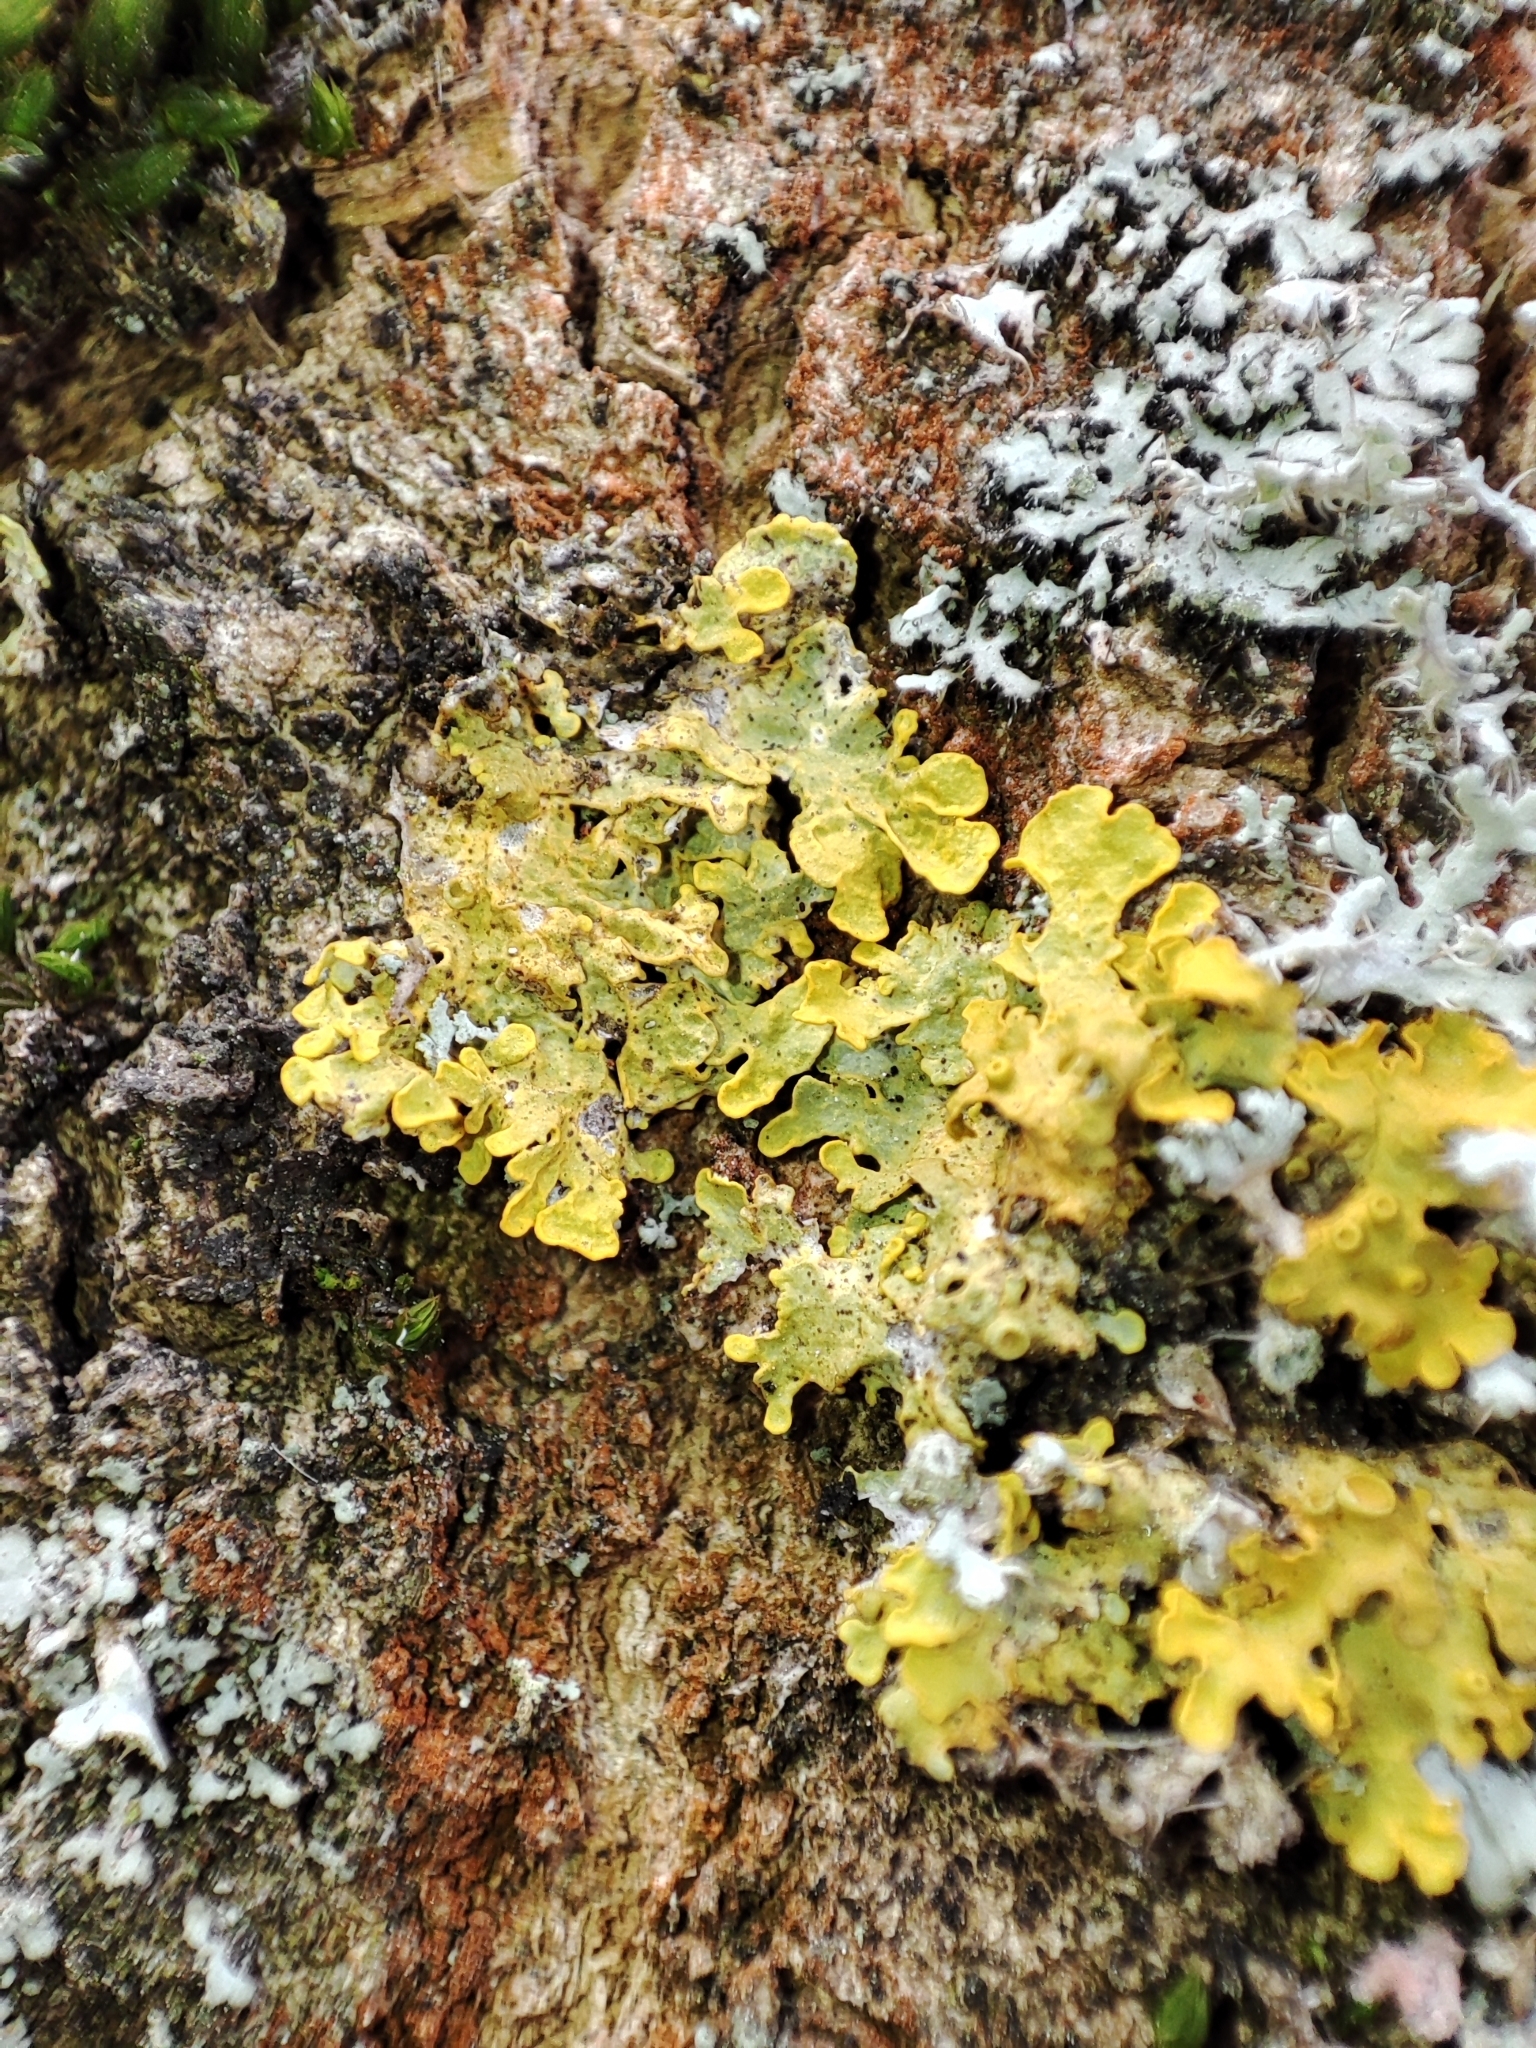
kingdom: Fungi
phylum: Ascomycota
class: Lecanoromycetes
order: Teloschistales
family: Teloschistaceae
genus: Xanthoria
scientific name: Xanthoria parietina
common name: Common orange lichen
